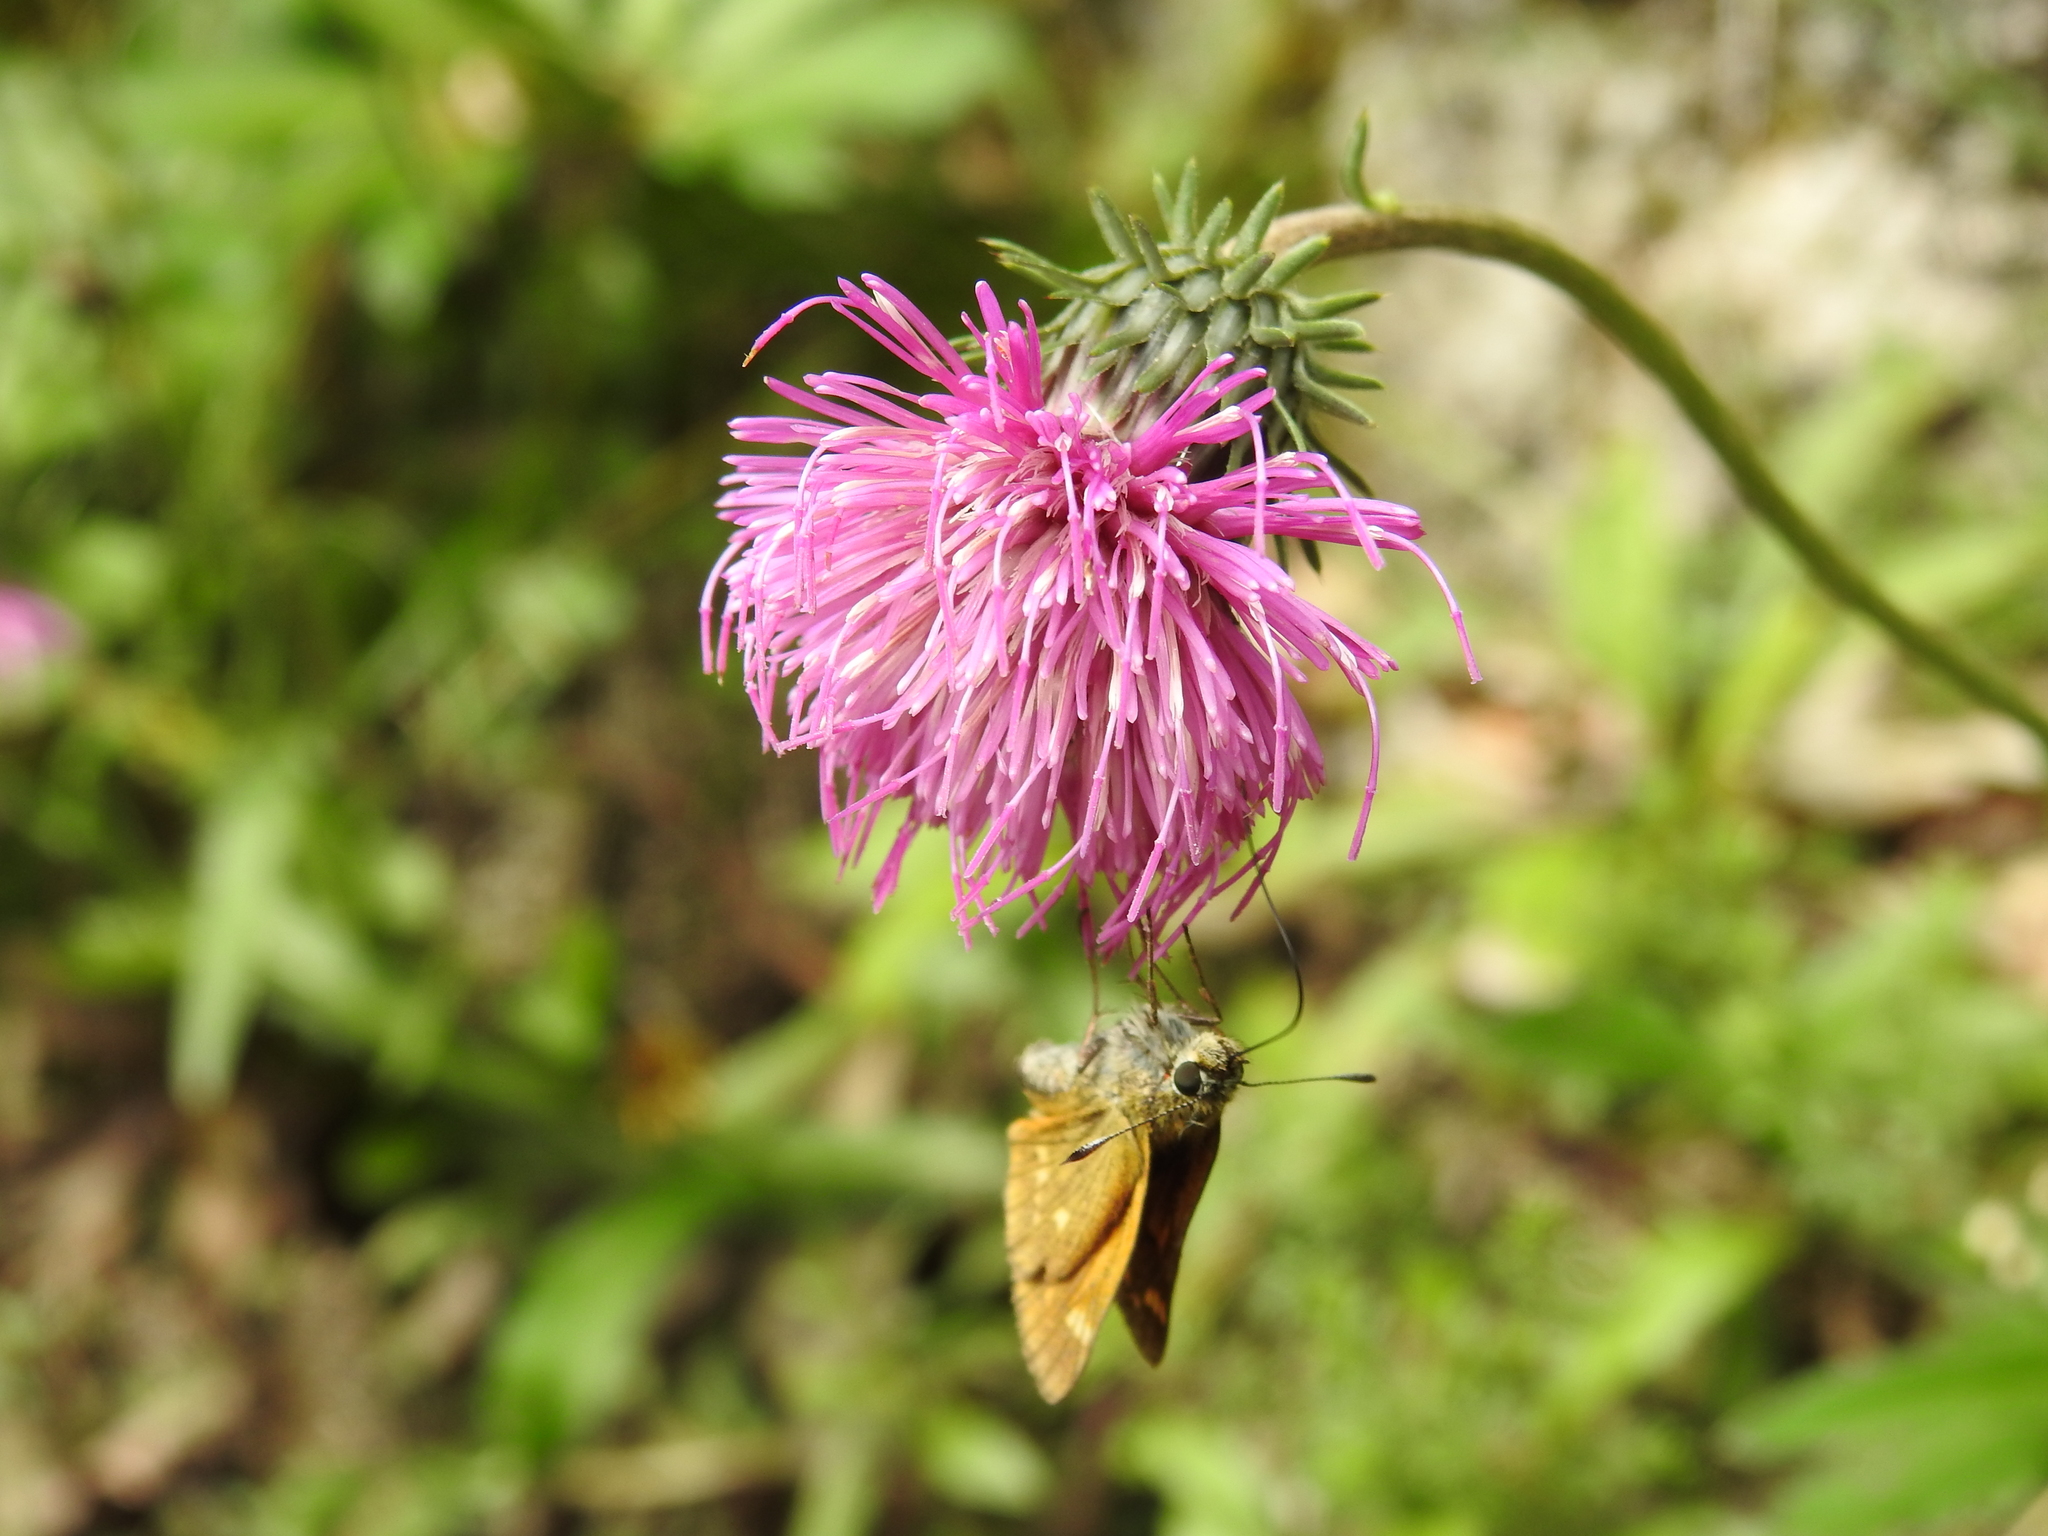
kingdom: Animalia
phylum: Arthropoda
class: Insecta
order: Lepidoptera
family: Hesperiidae
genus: Ochlodes
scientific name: Ochlodes venata
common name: Large skipper
